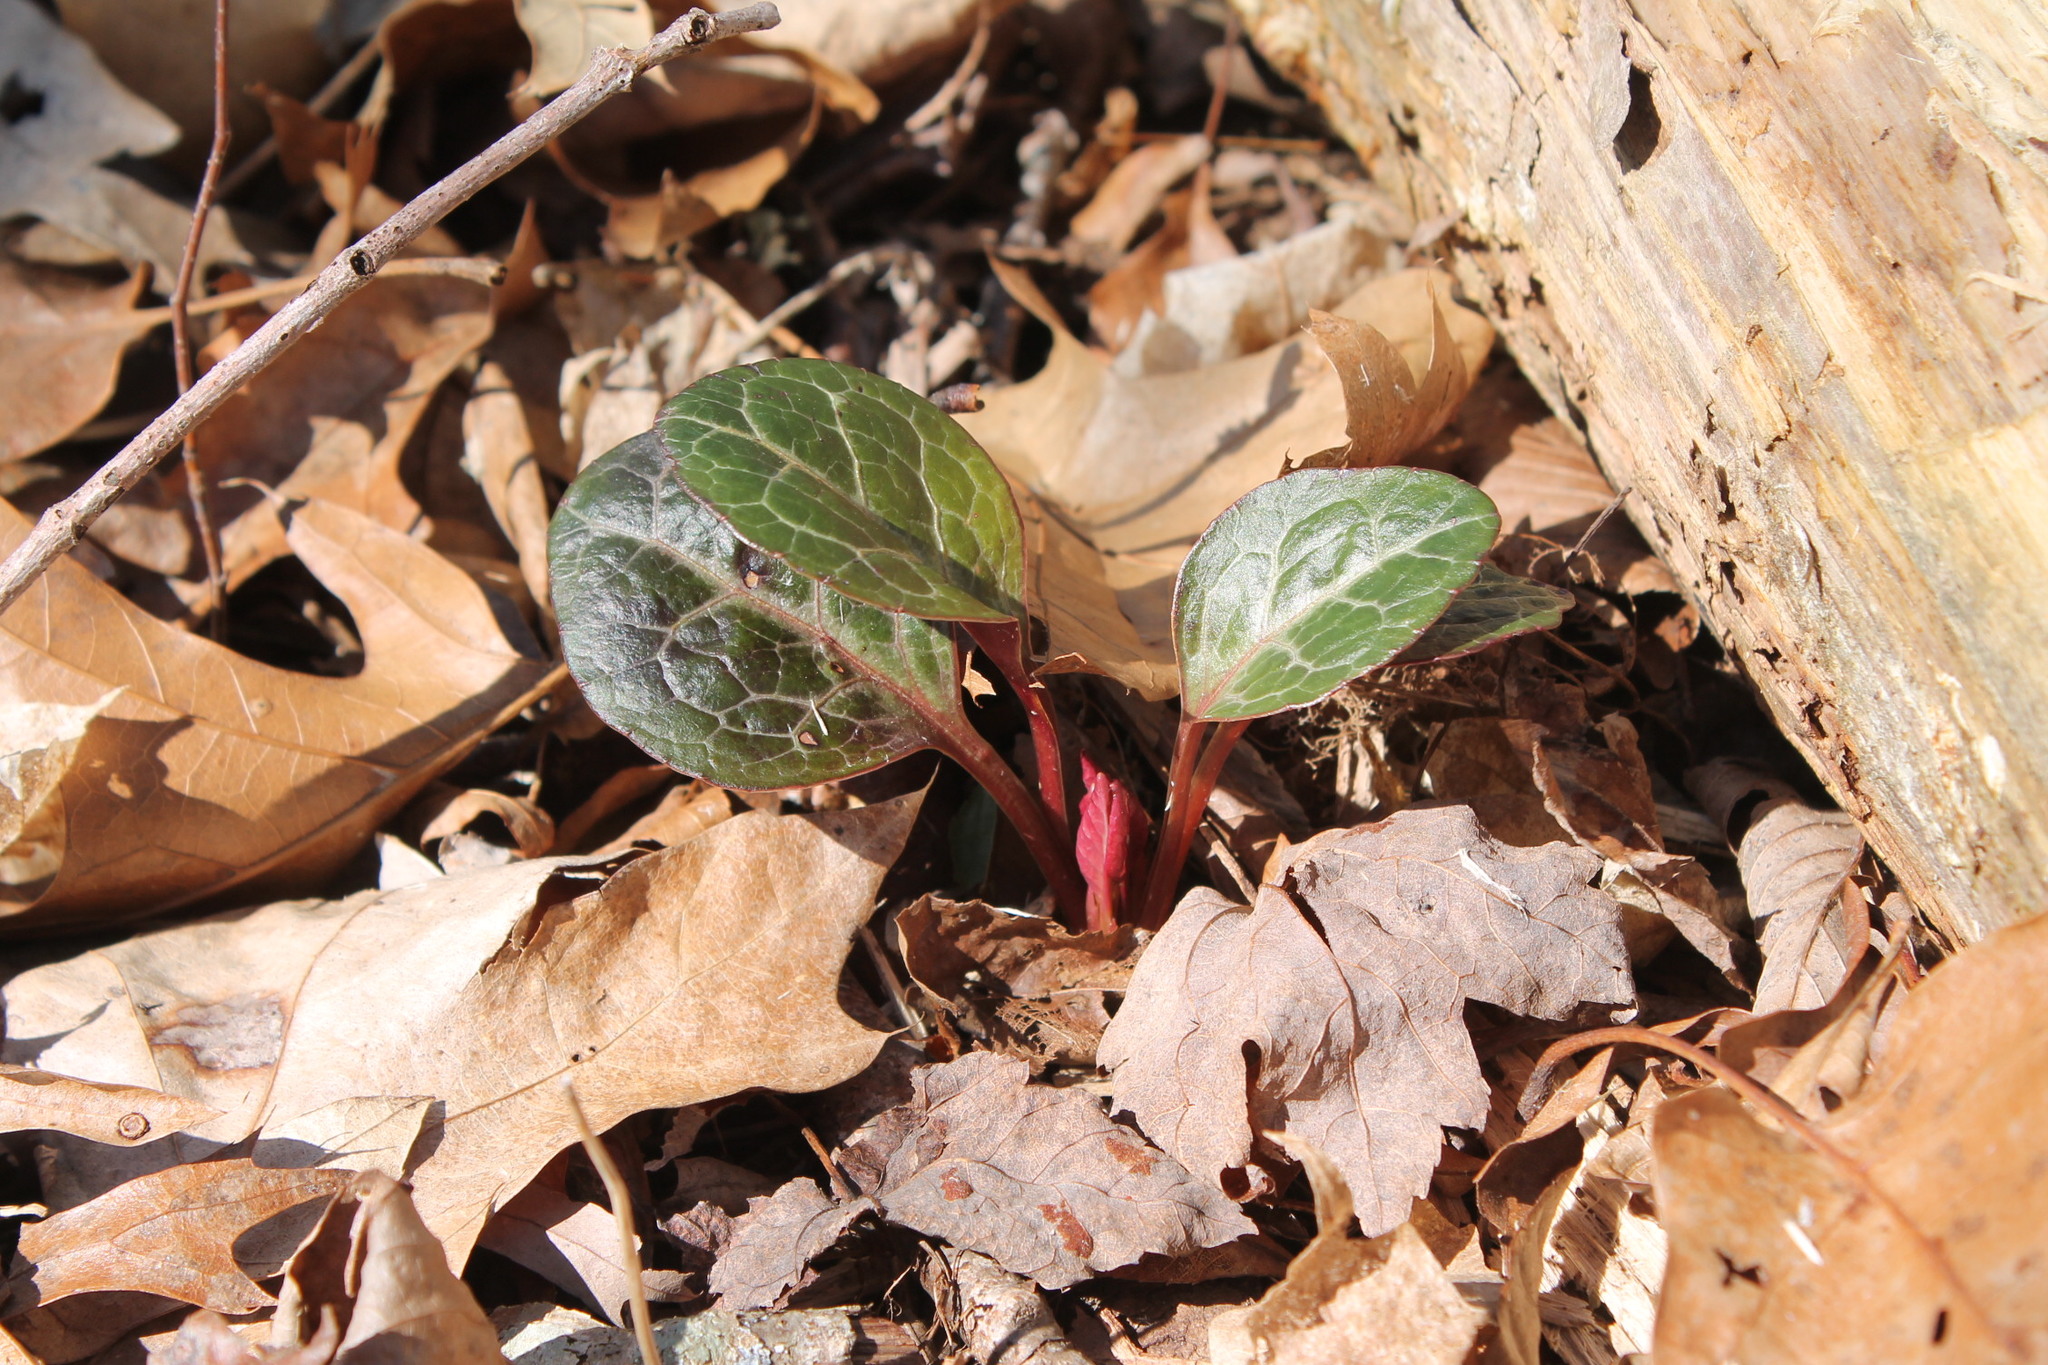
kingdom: Plantae
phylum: Tracheophyta
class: Magnoliopsida
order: Ericales
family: Ericaceae
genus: Pyrola
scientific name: Pyrola americana
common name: American wintergreen
